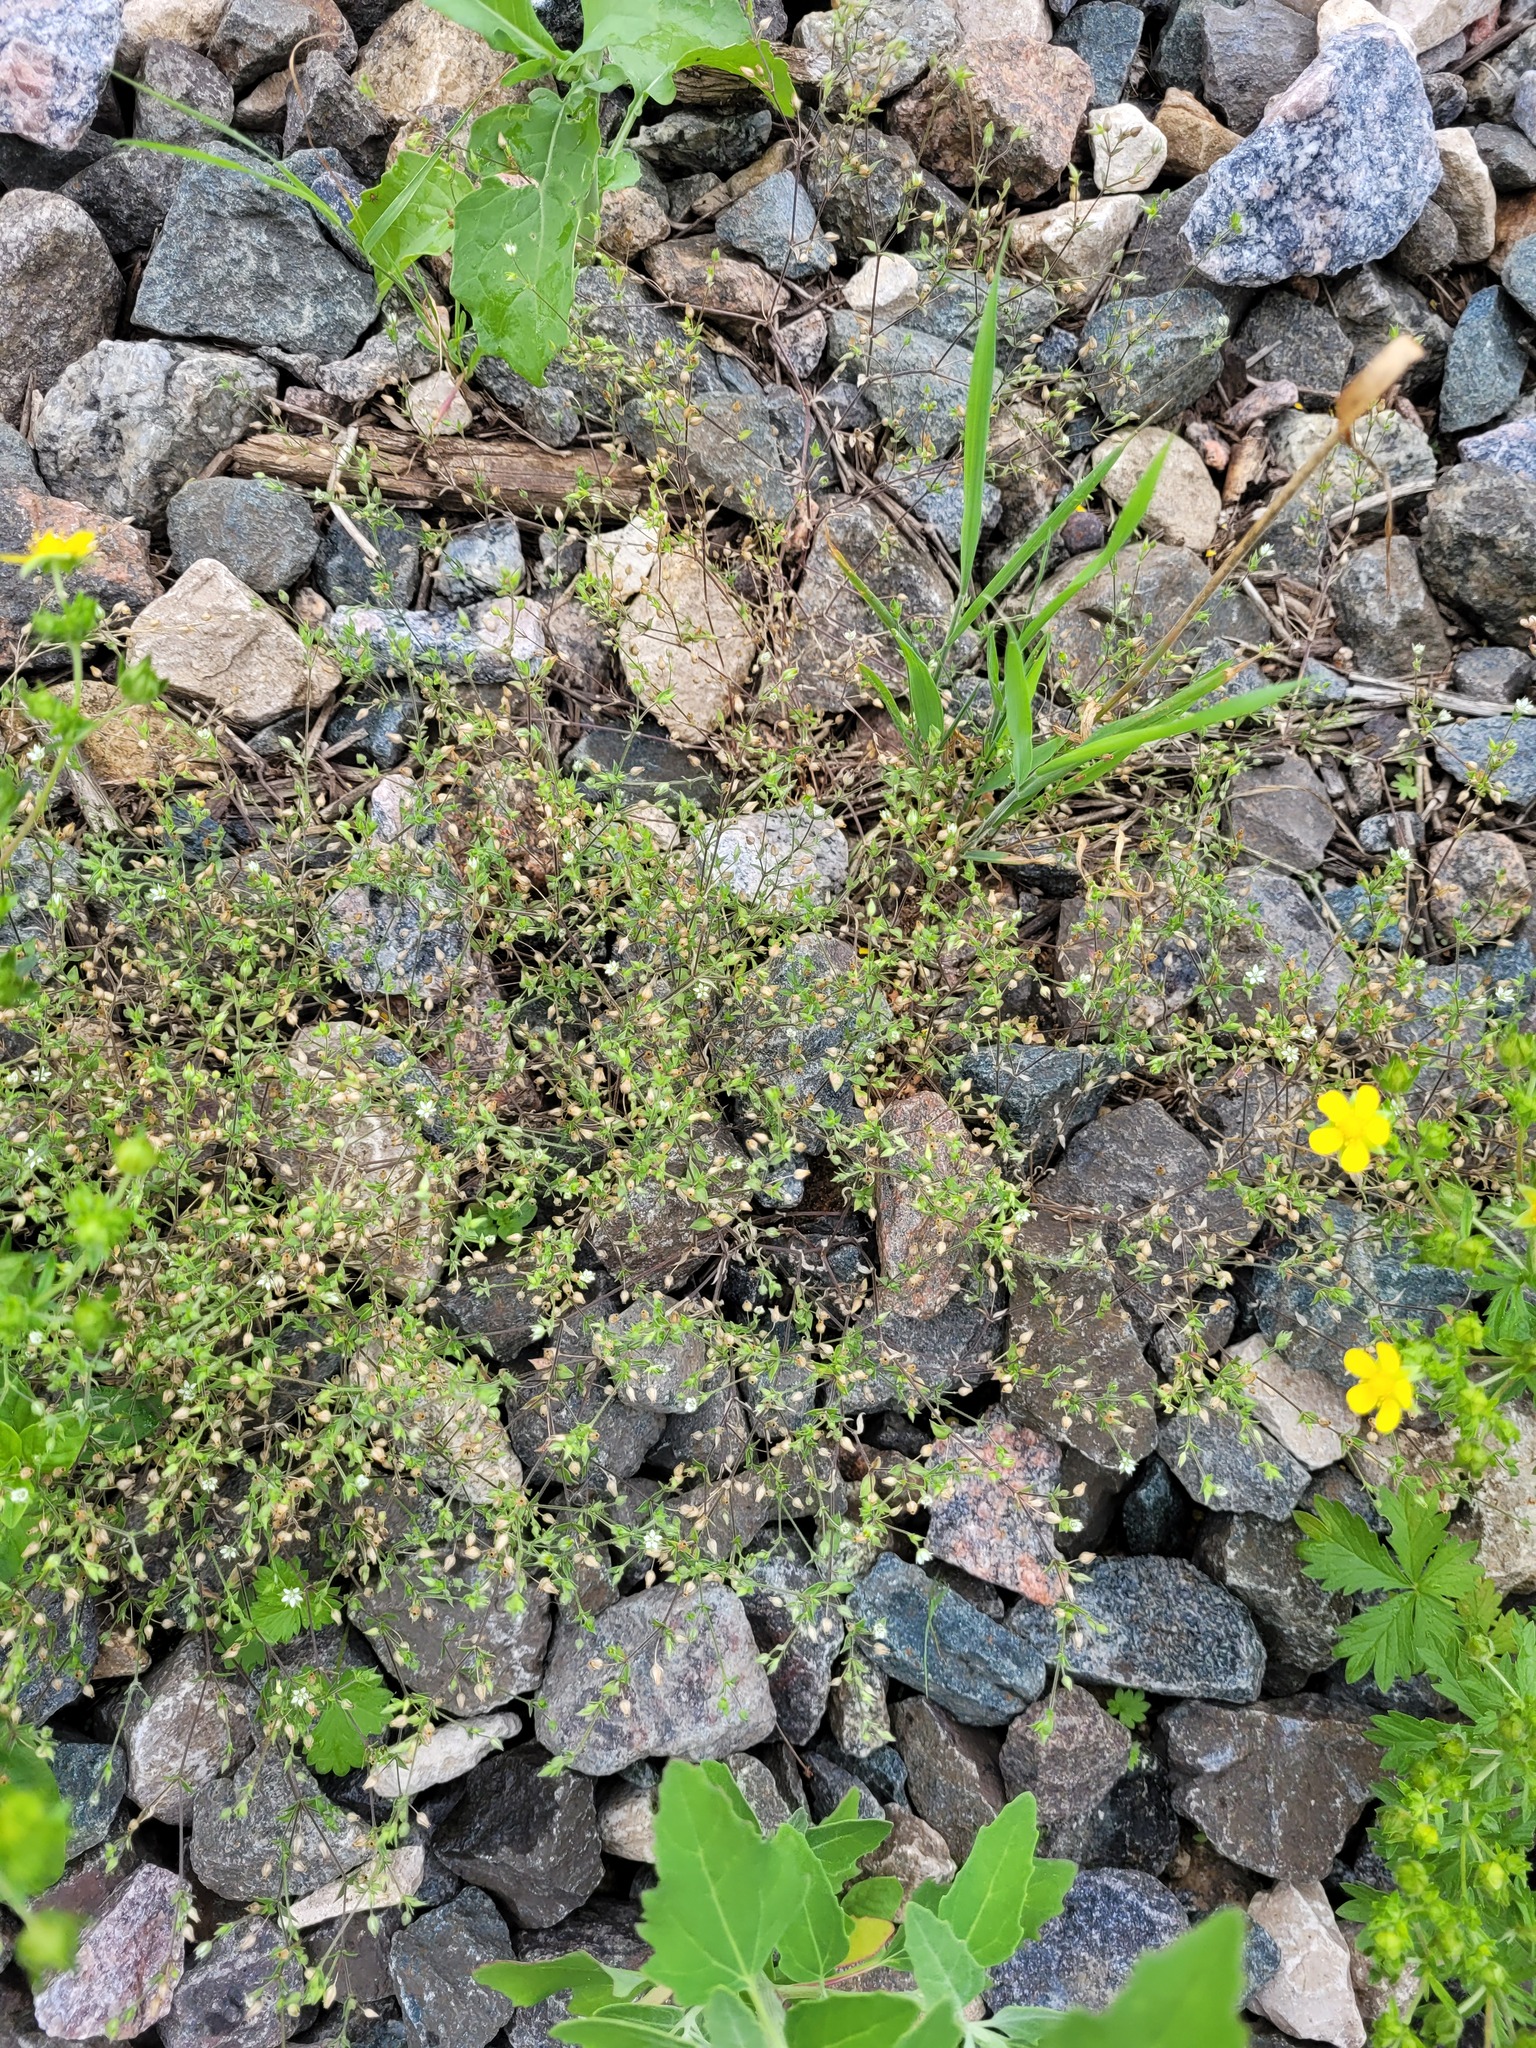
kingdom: Plantae
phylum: Tracheophyta
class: Magnoliopsida
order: Caryophyllales
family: Caryophyllaceae
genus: Arenaria
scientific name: Arenaria serpyllifolia
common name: Thyme-leaved sandwort
